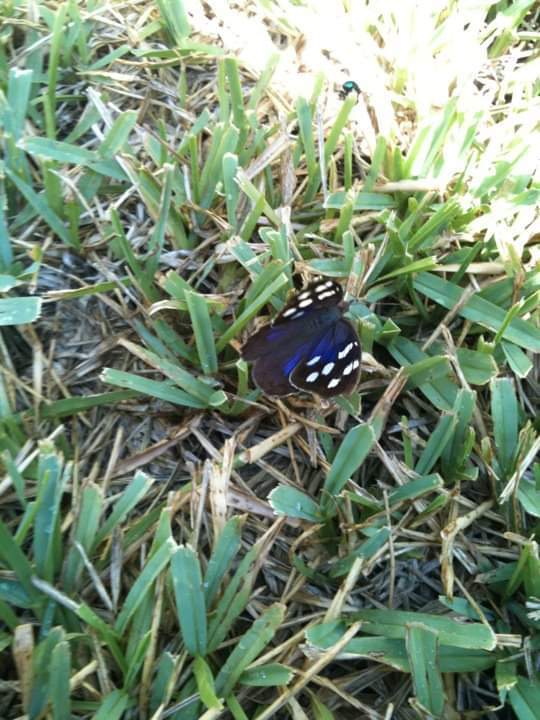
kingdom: Animalia
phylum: Arthropoda
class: Insecta
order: Lepidoptera
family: Nymphalidae
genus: Eunica
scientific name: Eunica tatila
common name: Florida purplewing
